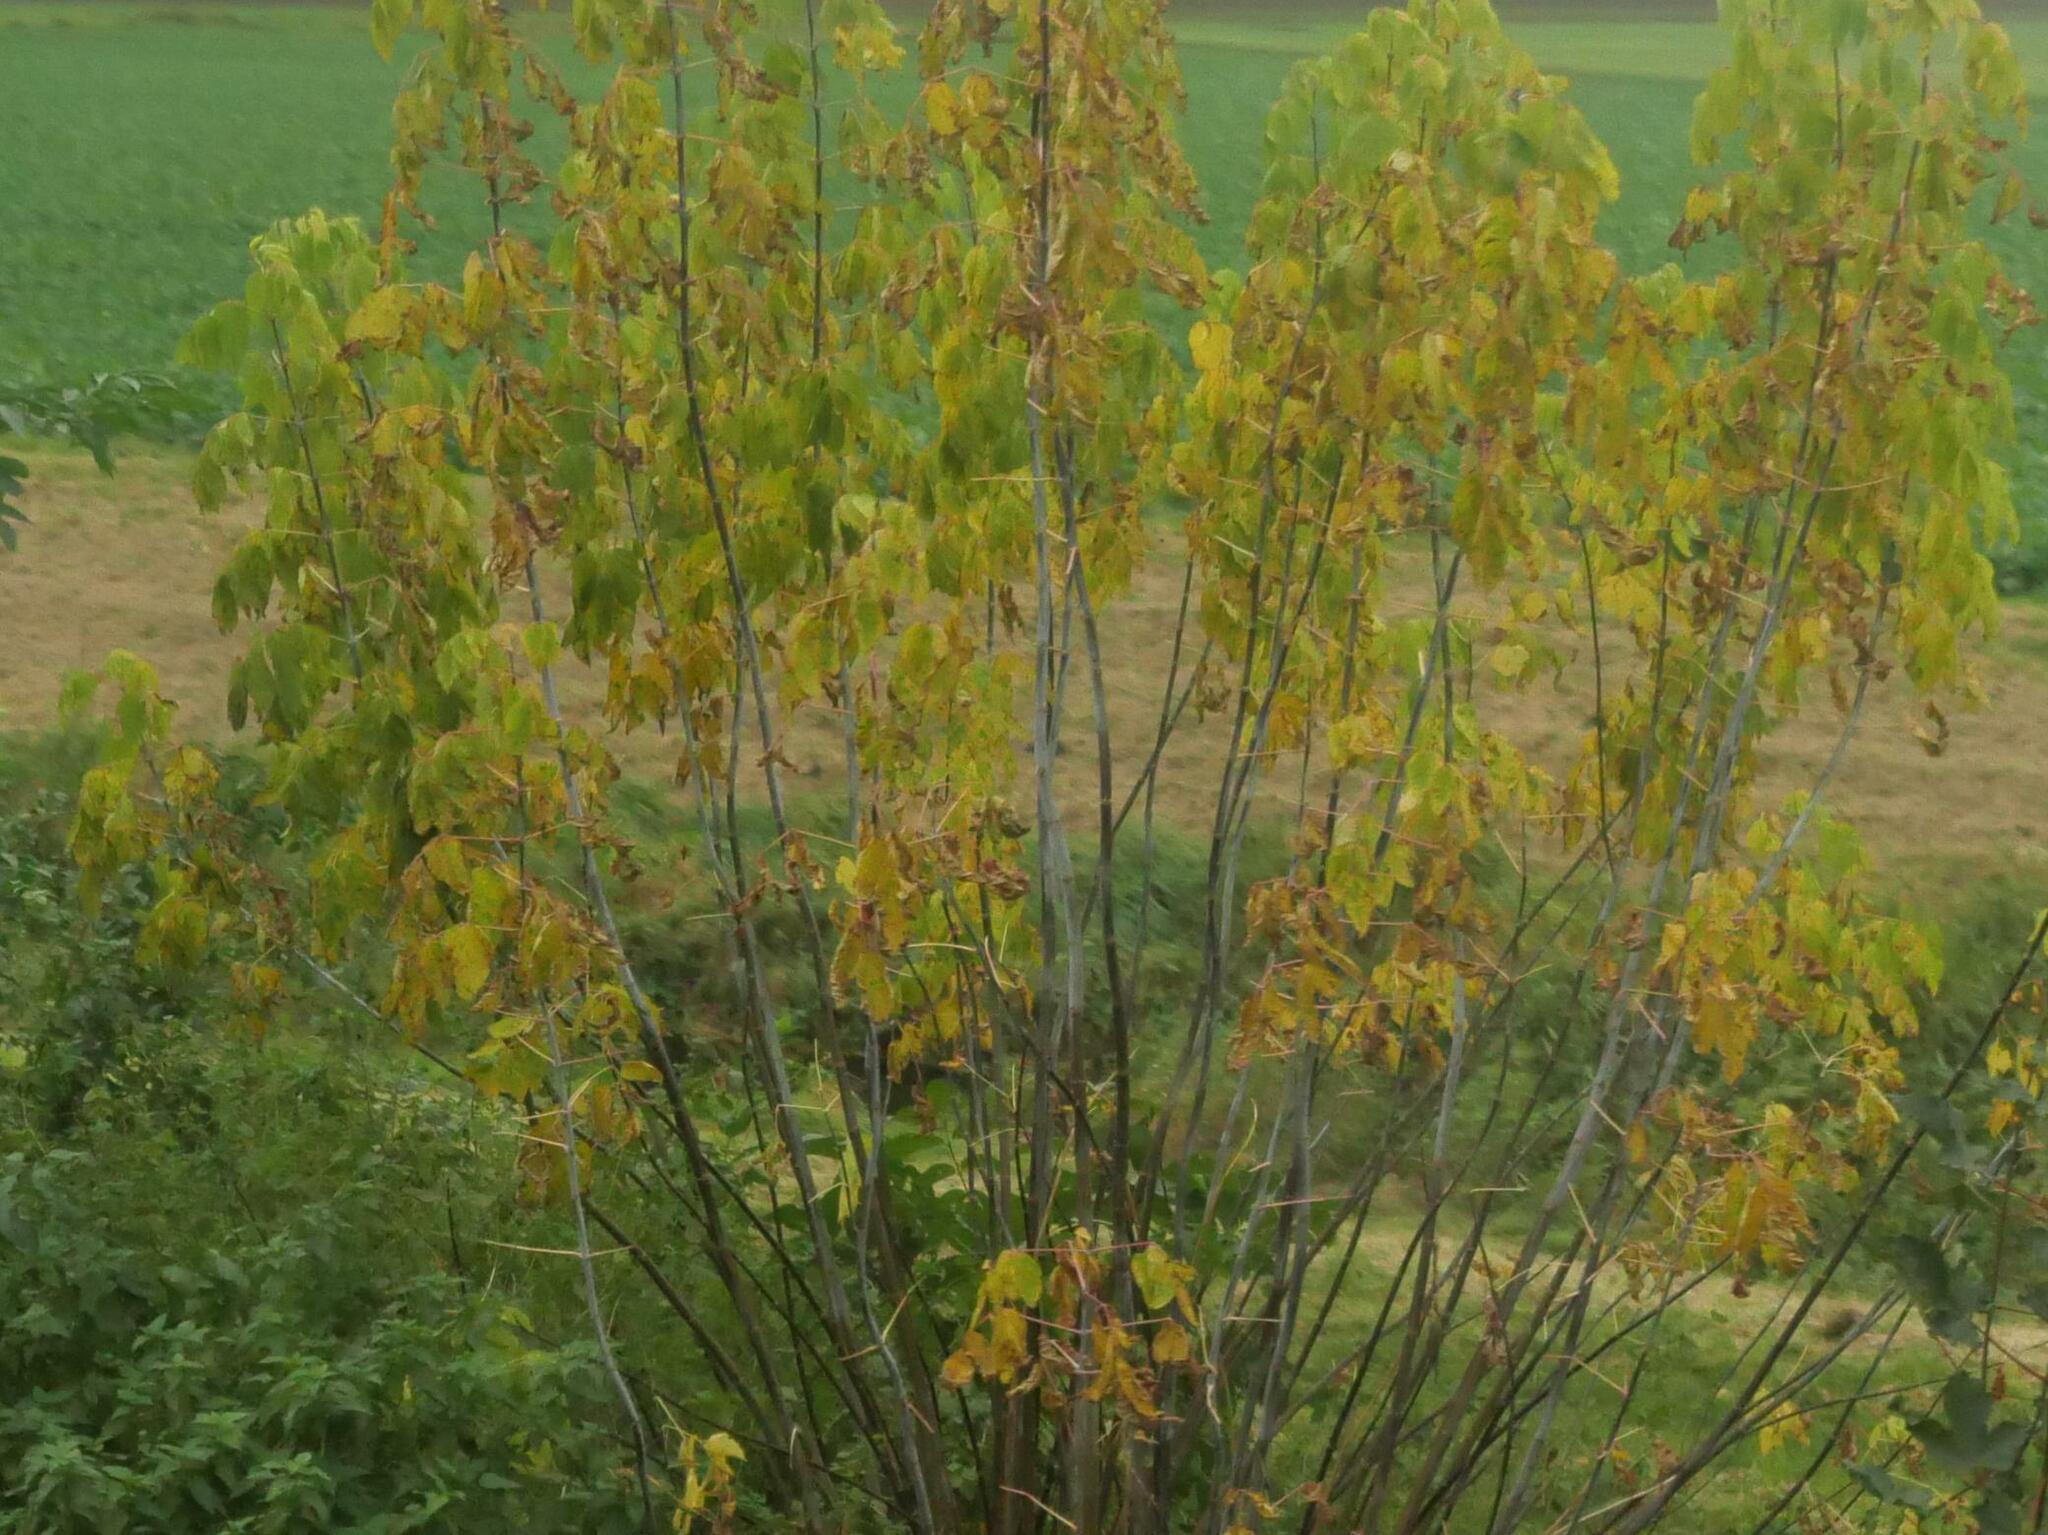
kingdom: Plantae
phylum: Tracheophyta
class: Magnoliopsida
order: Sapindales
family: Sapindaceae
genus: Acer
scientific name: Acer negundo
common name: Ashleaf maple
